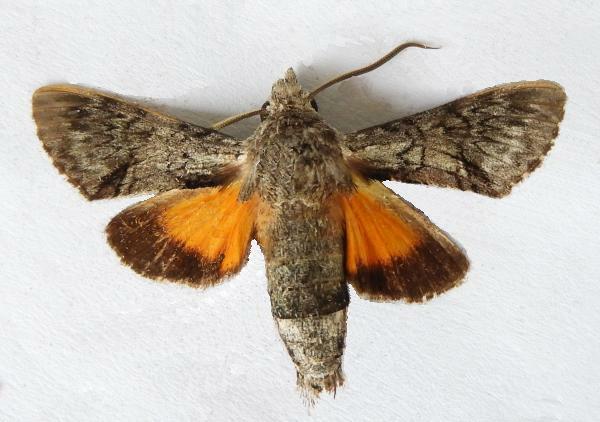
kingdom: Animalia
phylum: Arthropoda
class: Insecta
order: Lepidoptera
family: Sphingidae
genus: Cautethia
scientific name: Cautethia grotei
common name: Grote's sphinx
